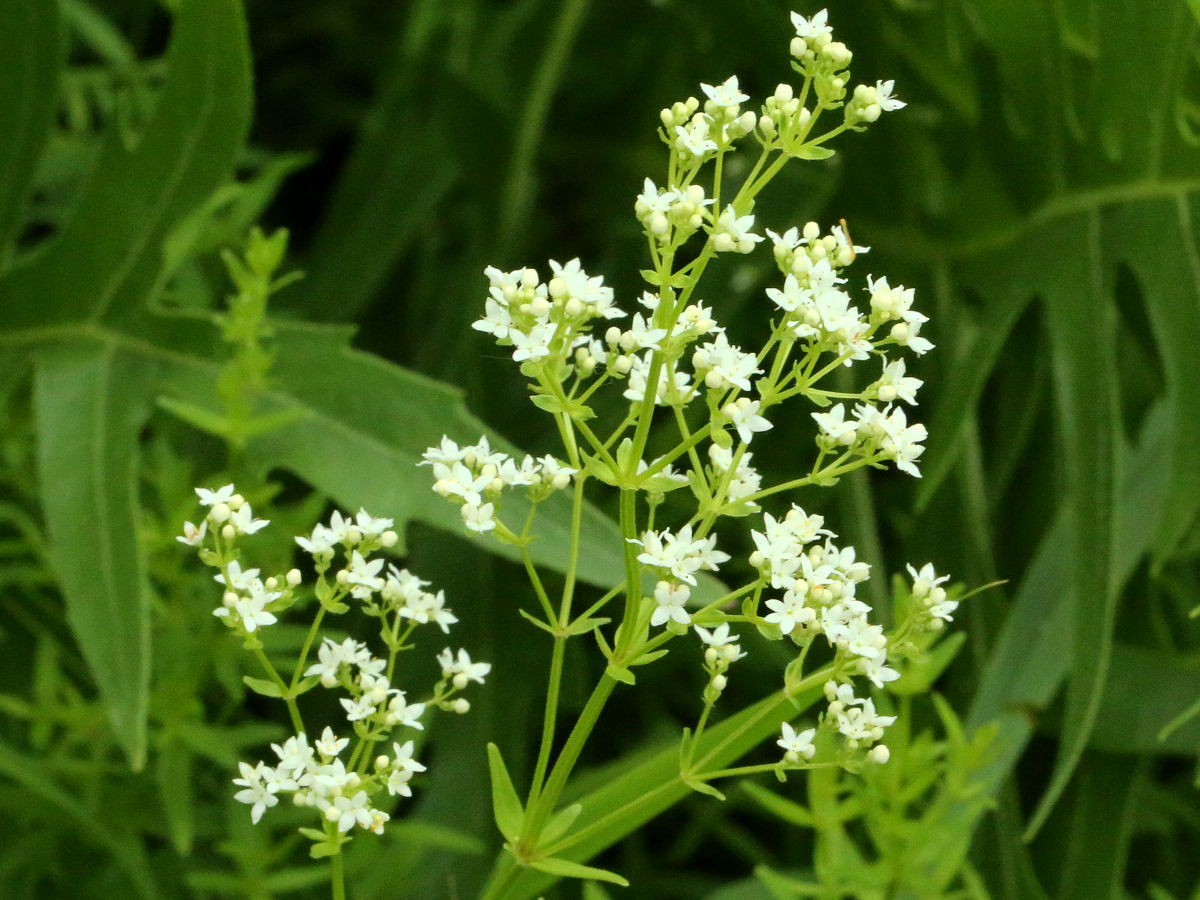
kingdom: Plantae
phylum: Tracheophyta
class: Magnoliopsida
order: Gentianales
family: Rubiaceae
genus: Galium
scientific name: Galium boreale
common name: Northern bedstraw
